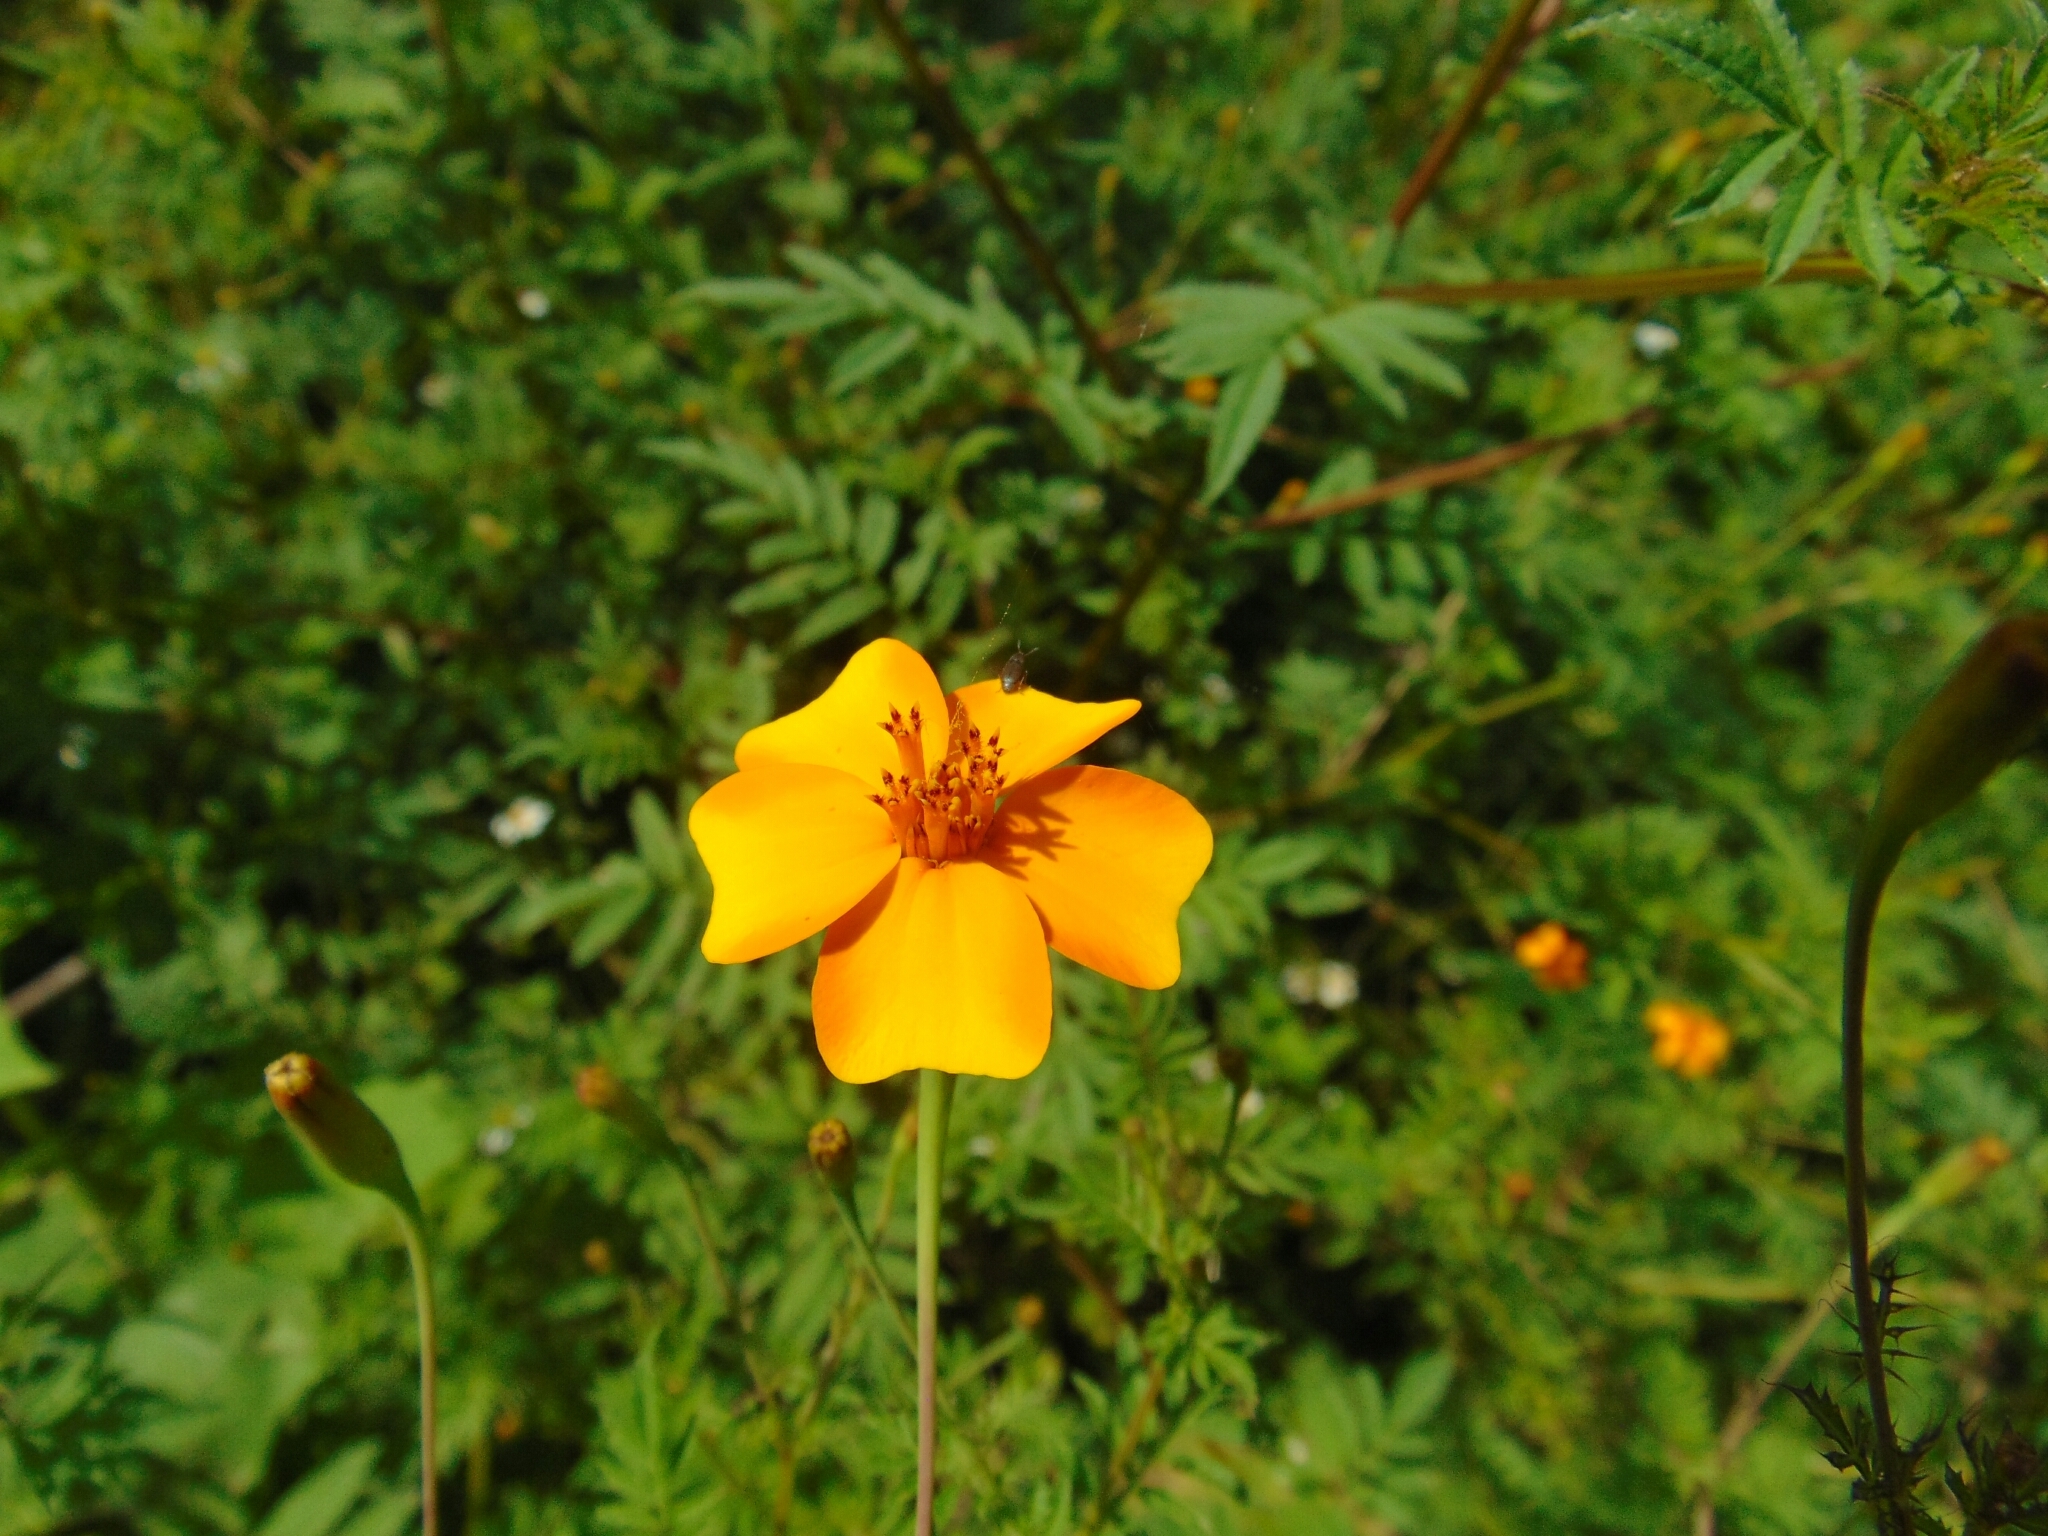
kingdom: Plantae
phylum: Tracheophyta
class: Magnoliopsida
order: Asterales
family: Asteraceae
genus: Tagetes
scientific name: Tagetes lunulata
